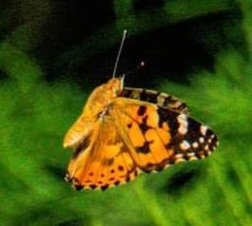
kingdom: Animalia
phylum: Arthropoda
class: Insecta
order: Lepidoptera
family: Nymphalidae
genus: Vanessa
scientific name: Vanessa cardui
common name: Painted lady
